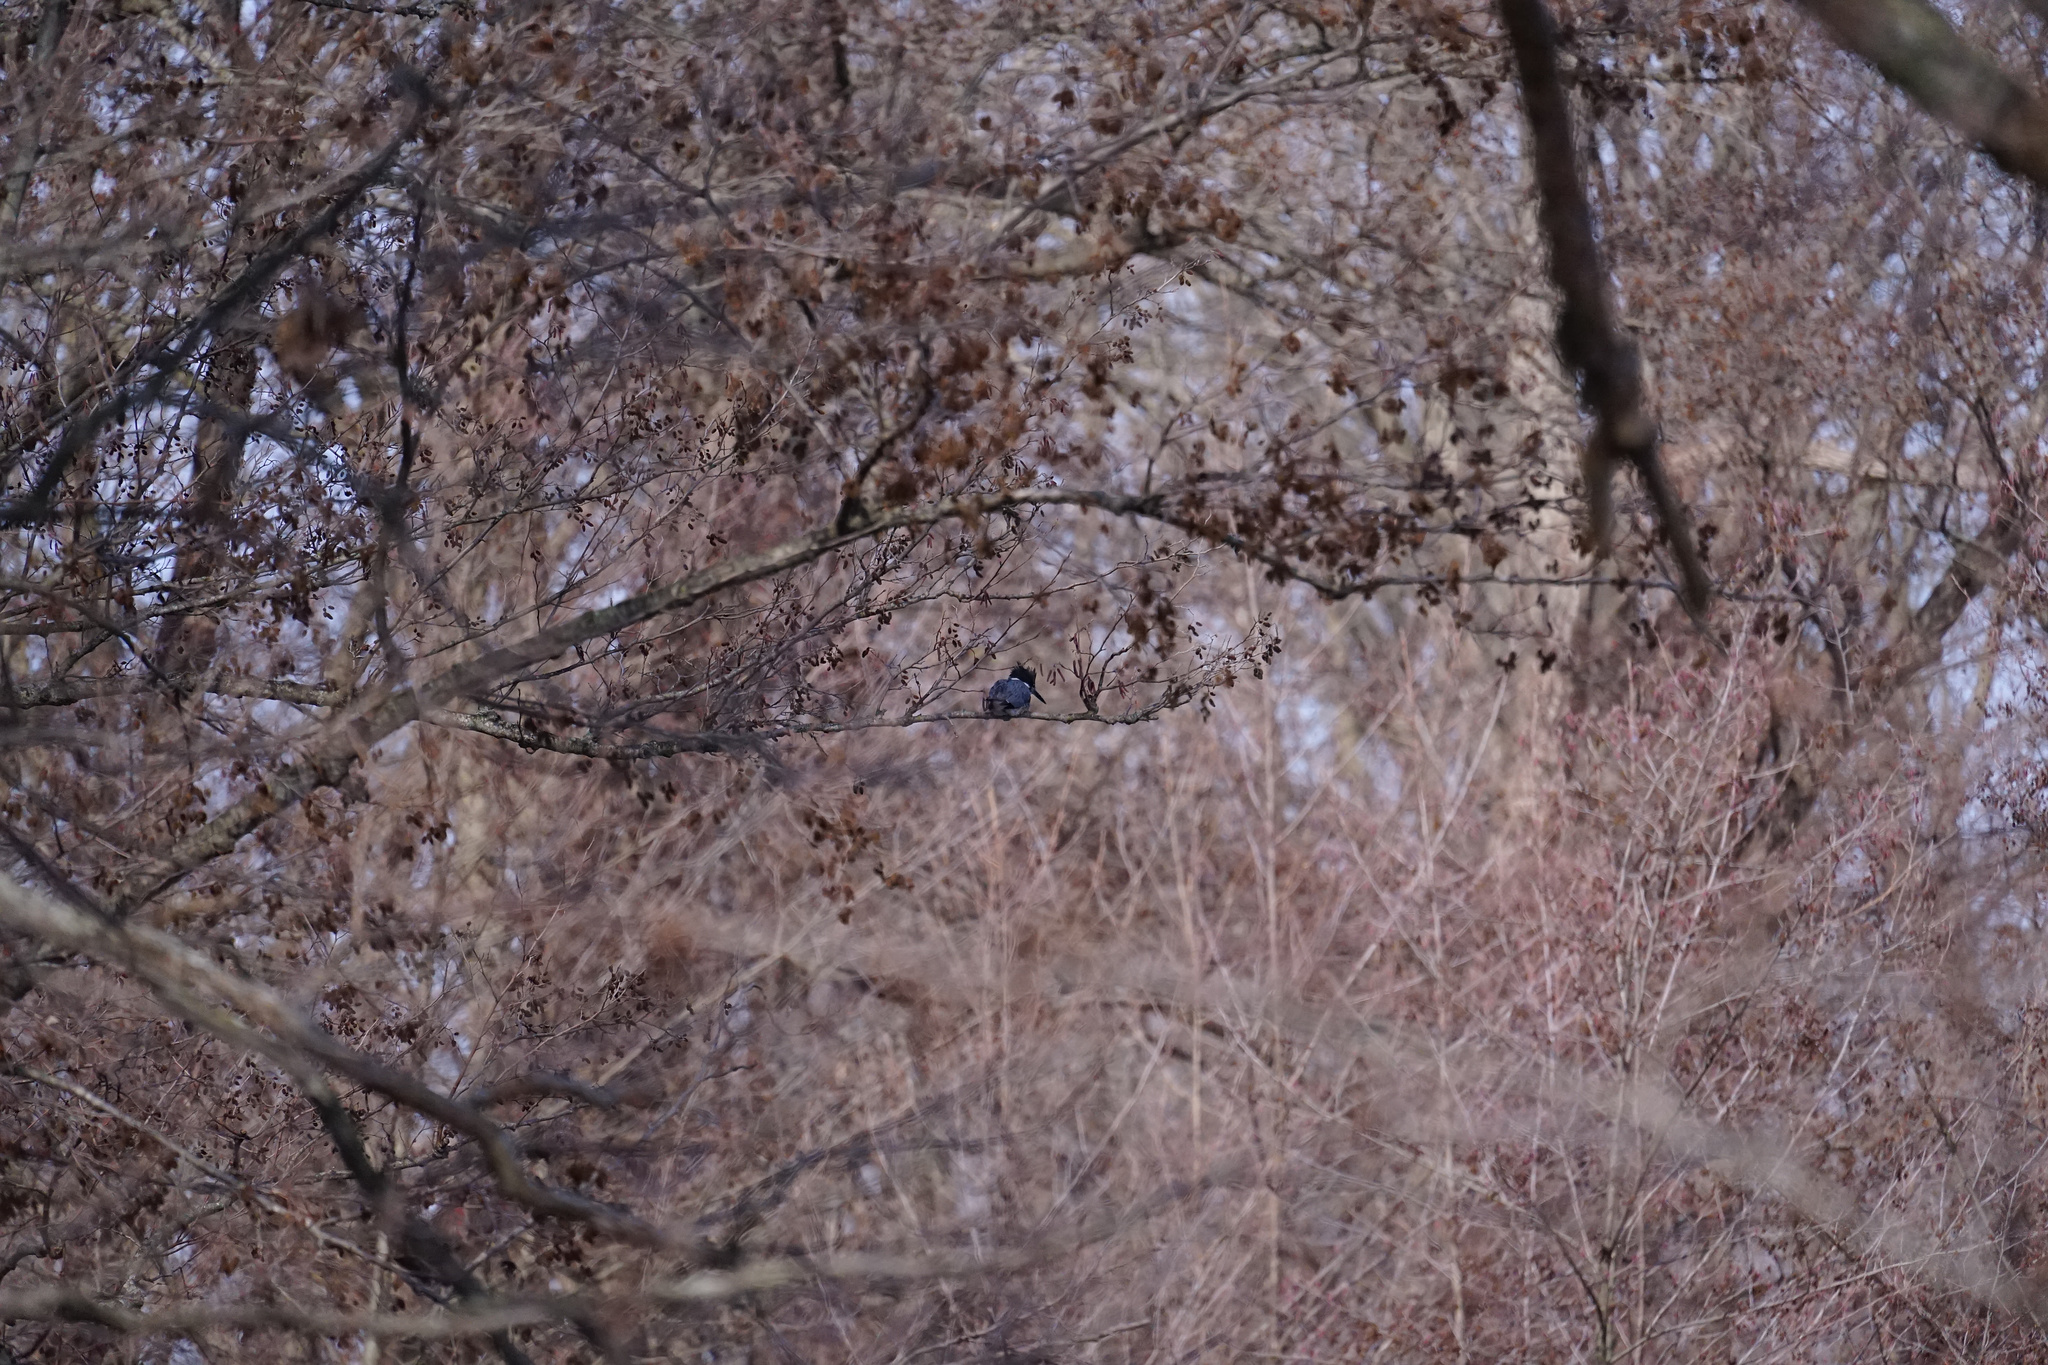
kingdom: Animalia
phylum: Chordata
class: Aves
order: Coraciiformes
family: Alcedinidae
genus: Megaceryle
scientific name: Megaceryle alcyon
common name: Belted kingfisher
